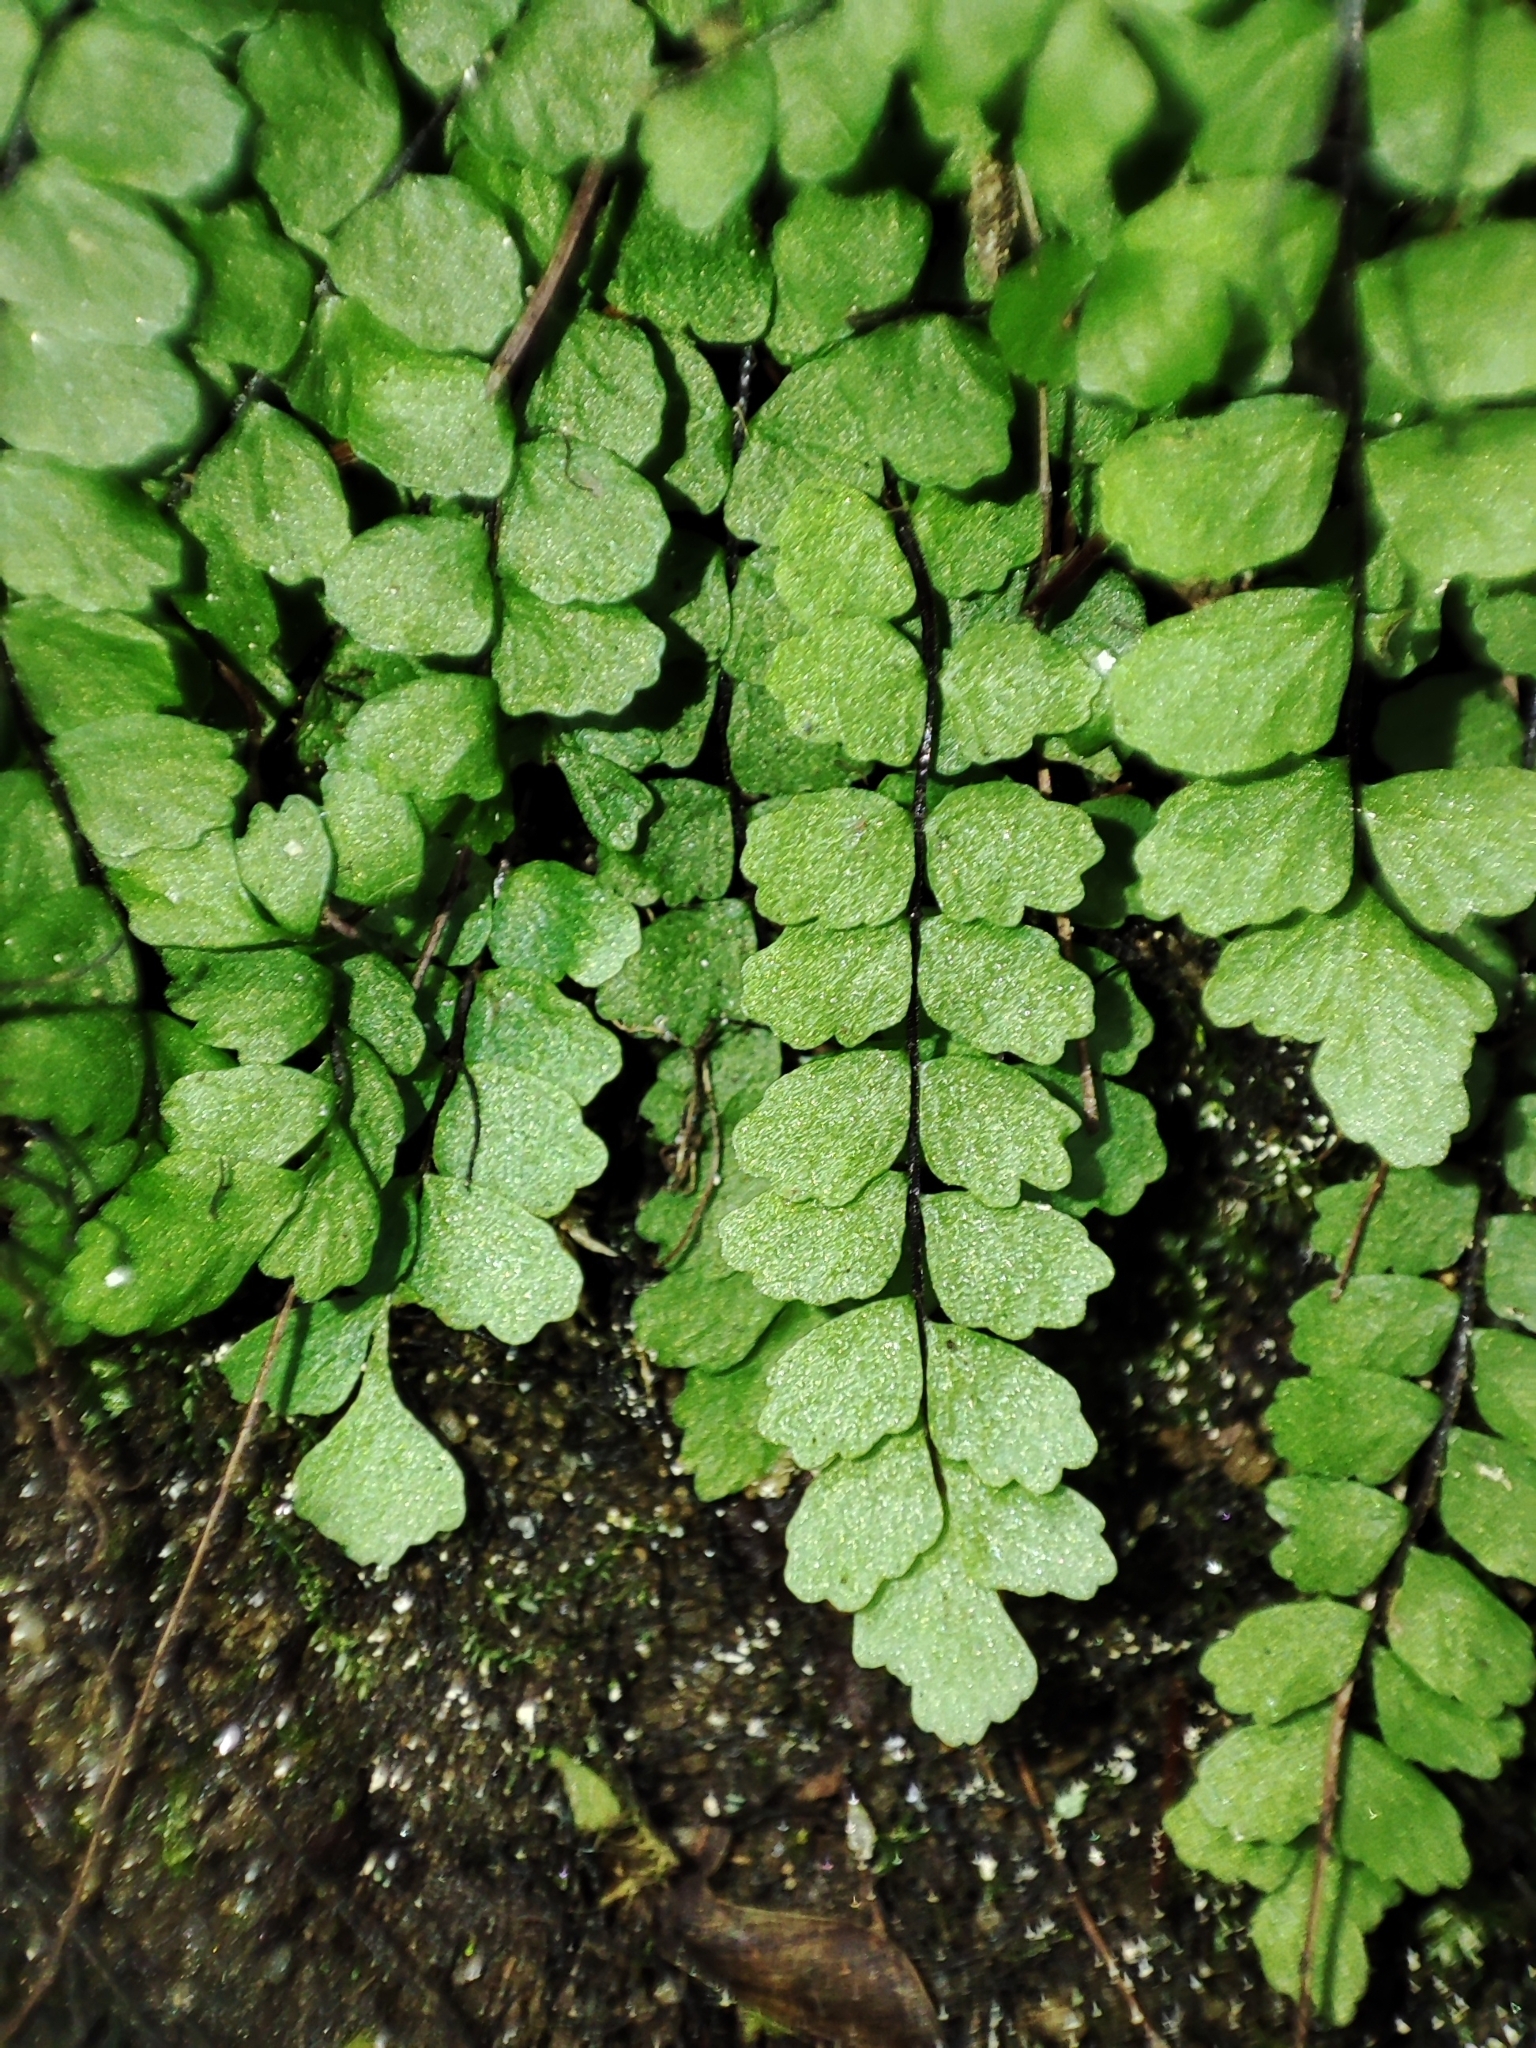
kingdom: Plantae
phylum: Tracheophyta
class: Polypodiopsida
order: Polypodiales
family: Aspleniaceae
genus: Asplenium
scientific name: Asplenium trichomanes
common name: Maidenhair spleenwort
